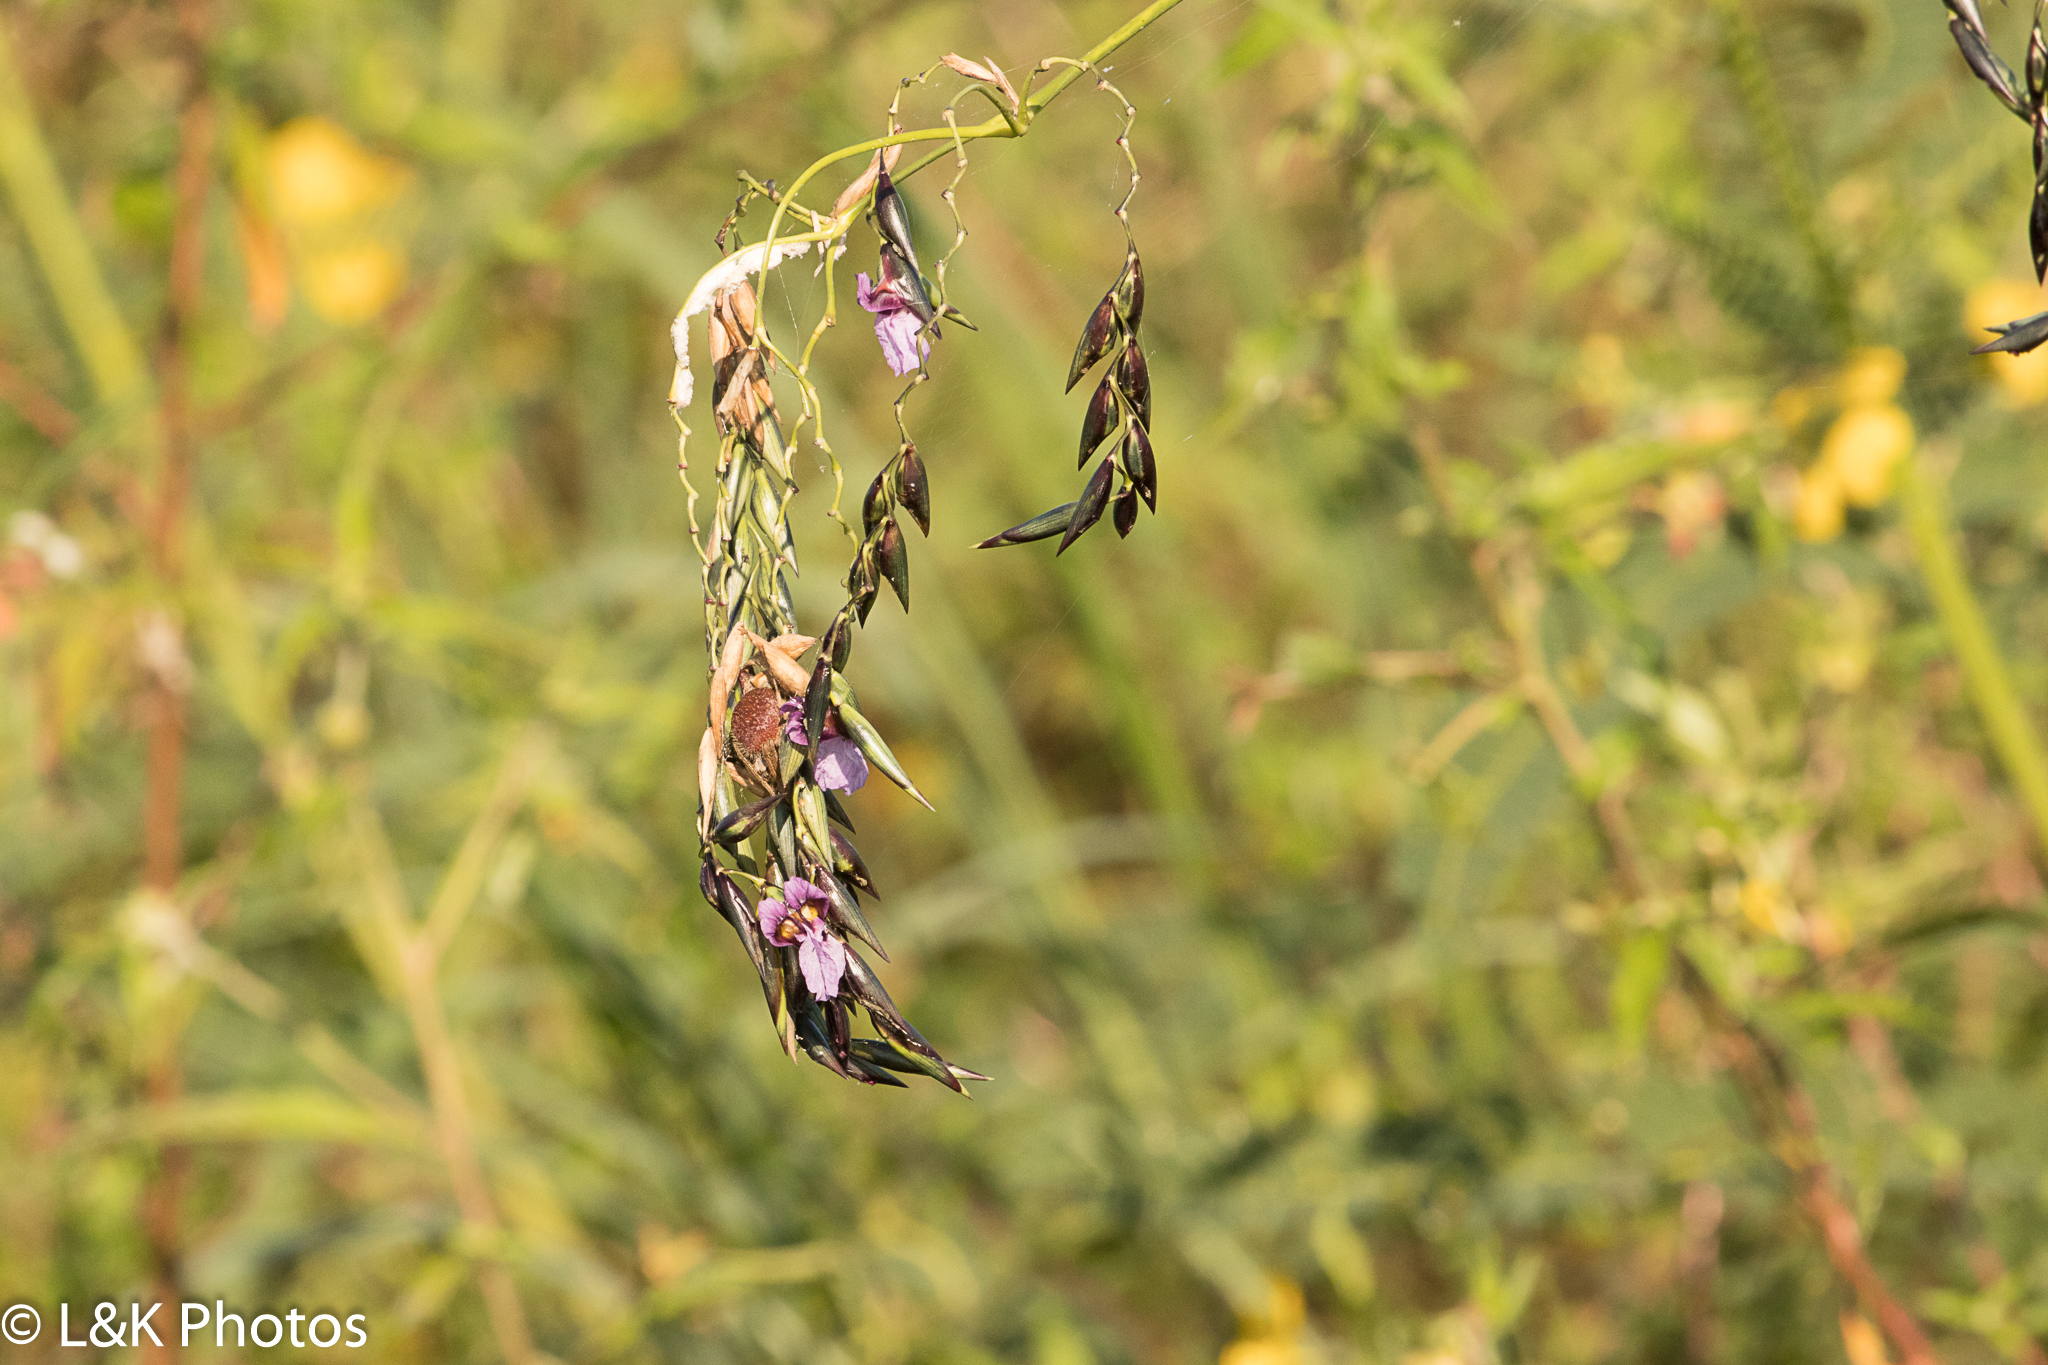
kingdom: Plantae
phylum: Tracheophyta
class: Liliopsida
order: Zingiberales
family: Marantaceae
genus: Thalia
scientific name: Thalia geniculata
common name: Arrowroot
